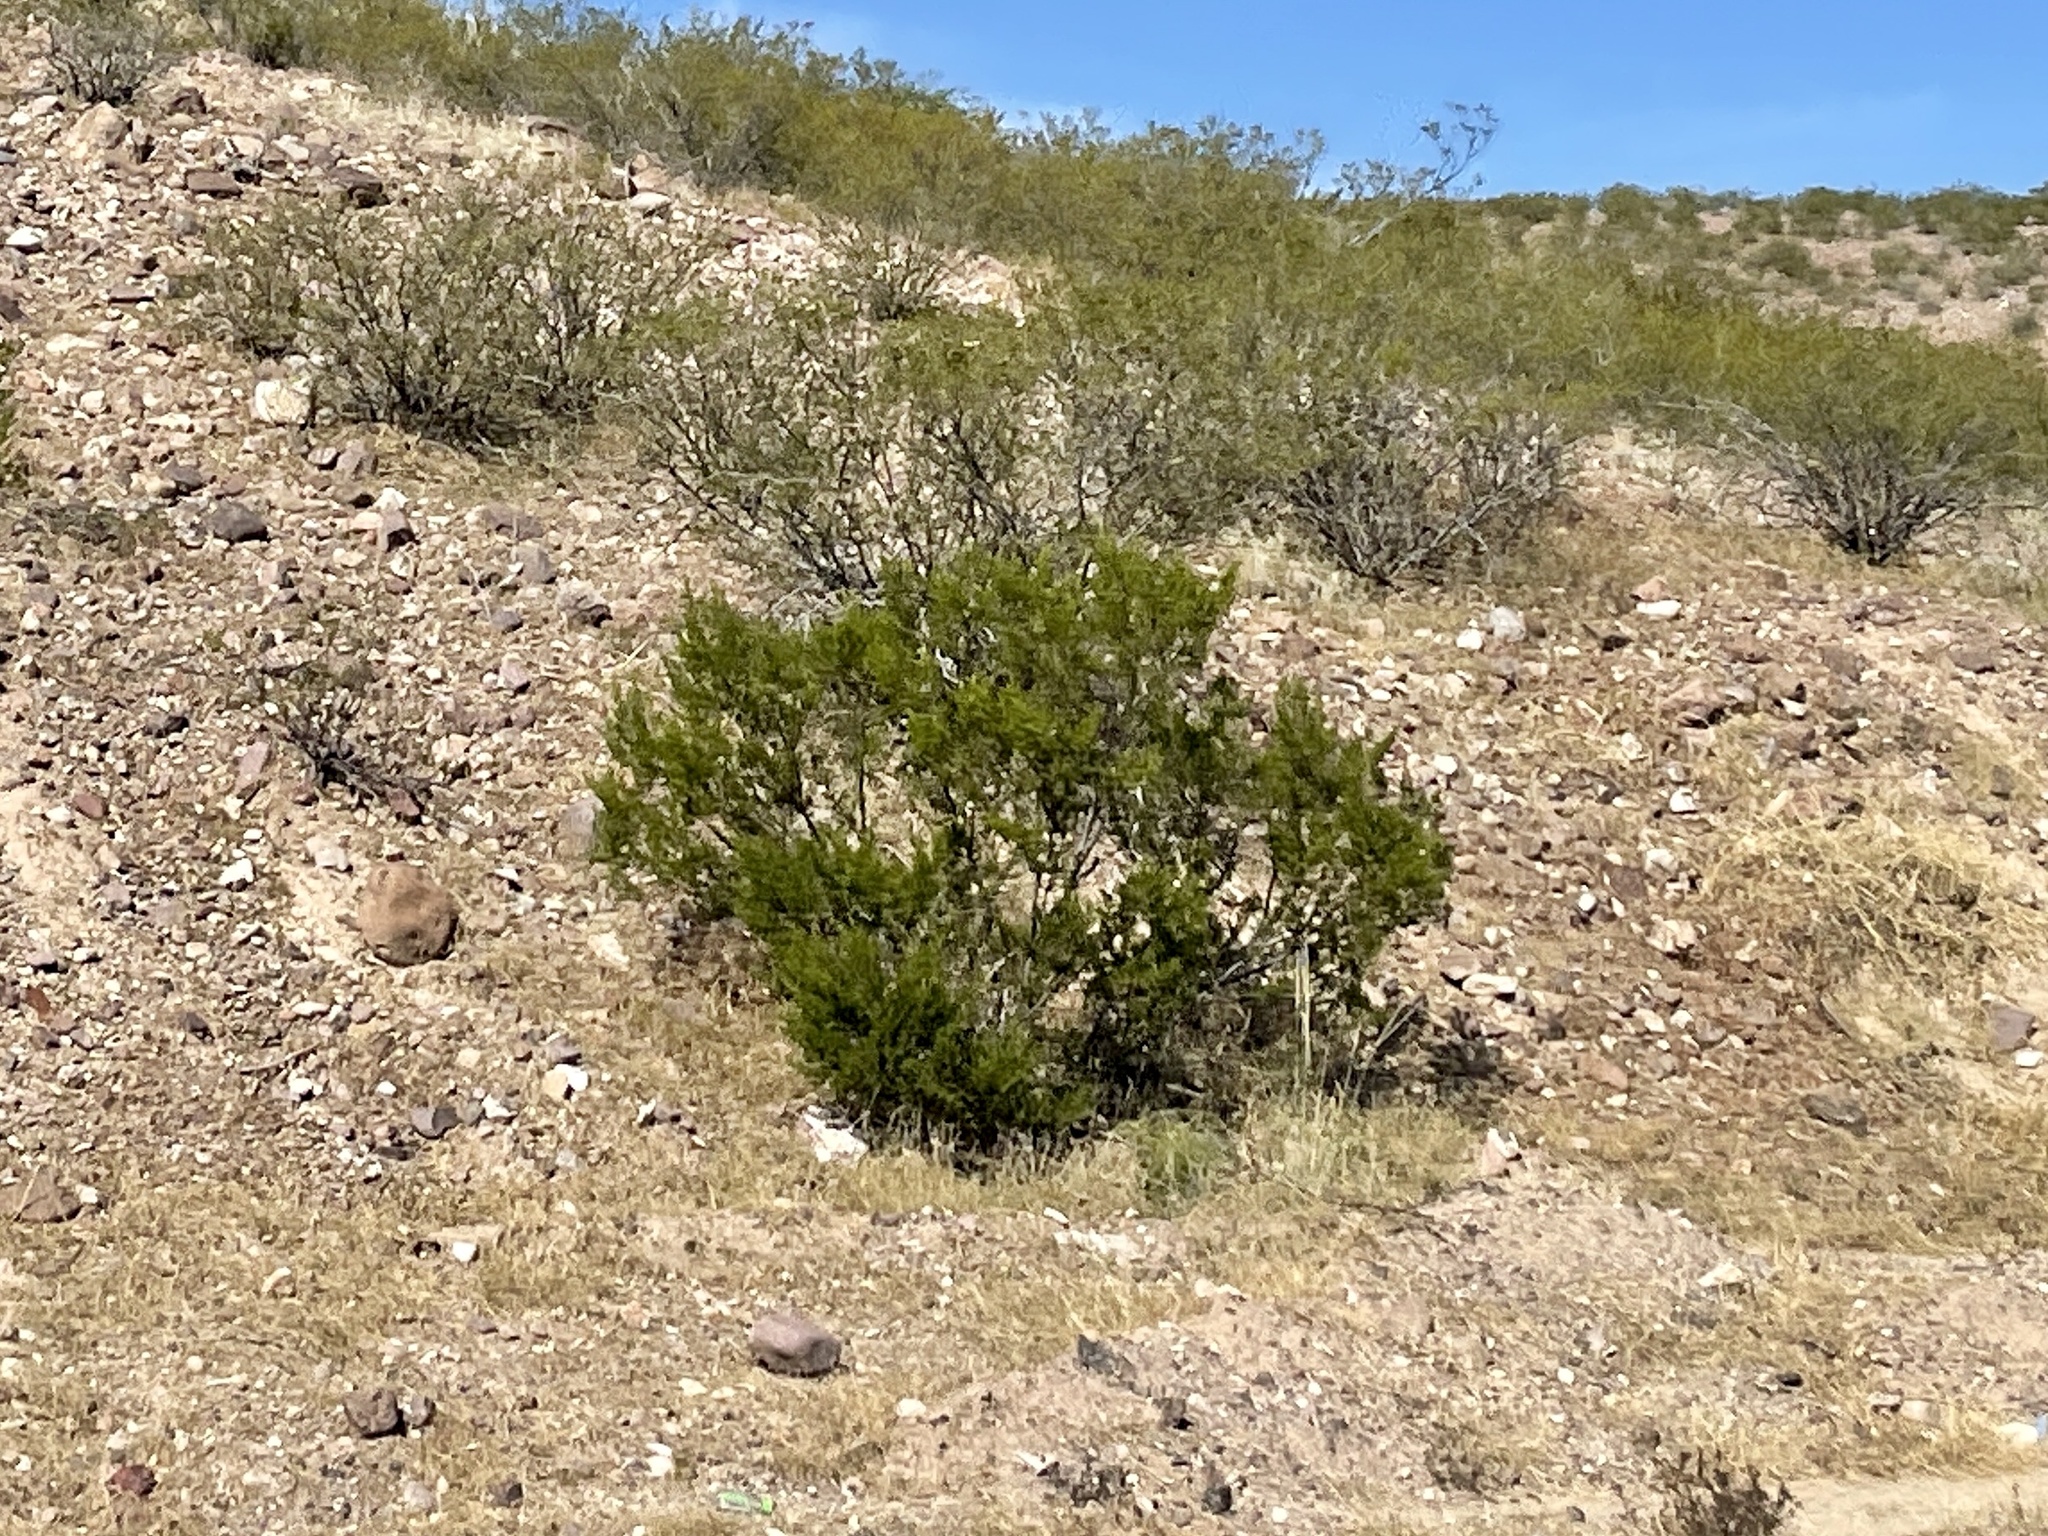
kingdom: Plantae
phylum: Tracheophyta
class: Magnoliopsida
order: Zygophyllales
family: Zygophyllaceae
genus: Larrea
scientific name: Larrea tridentata
